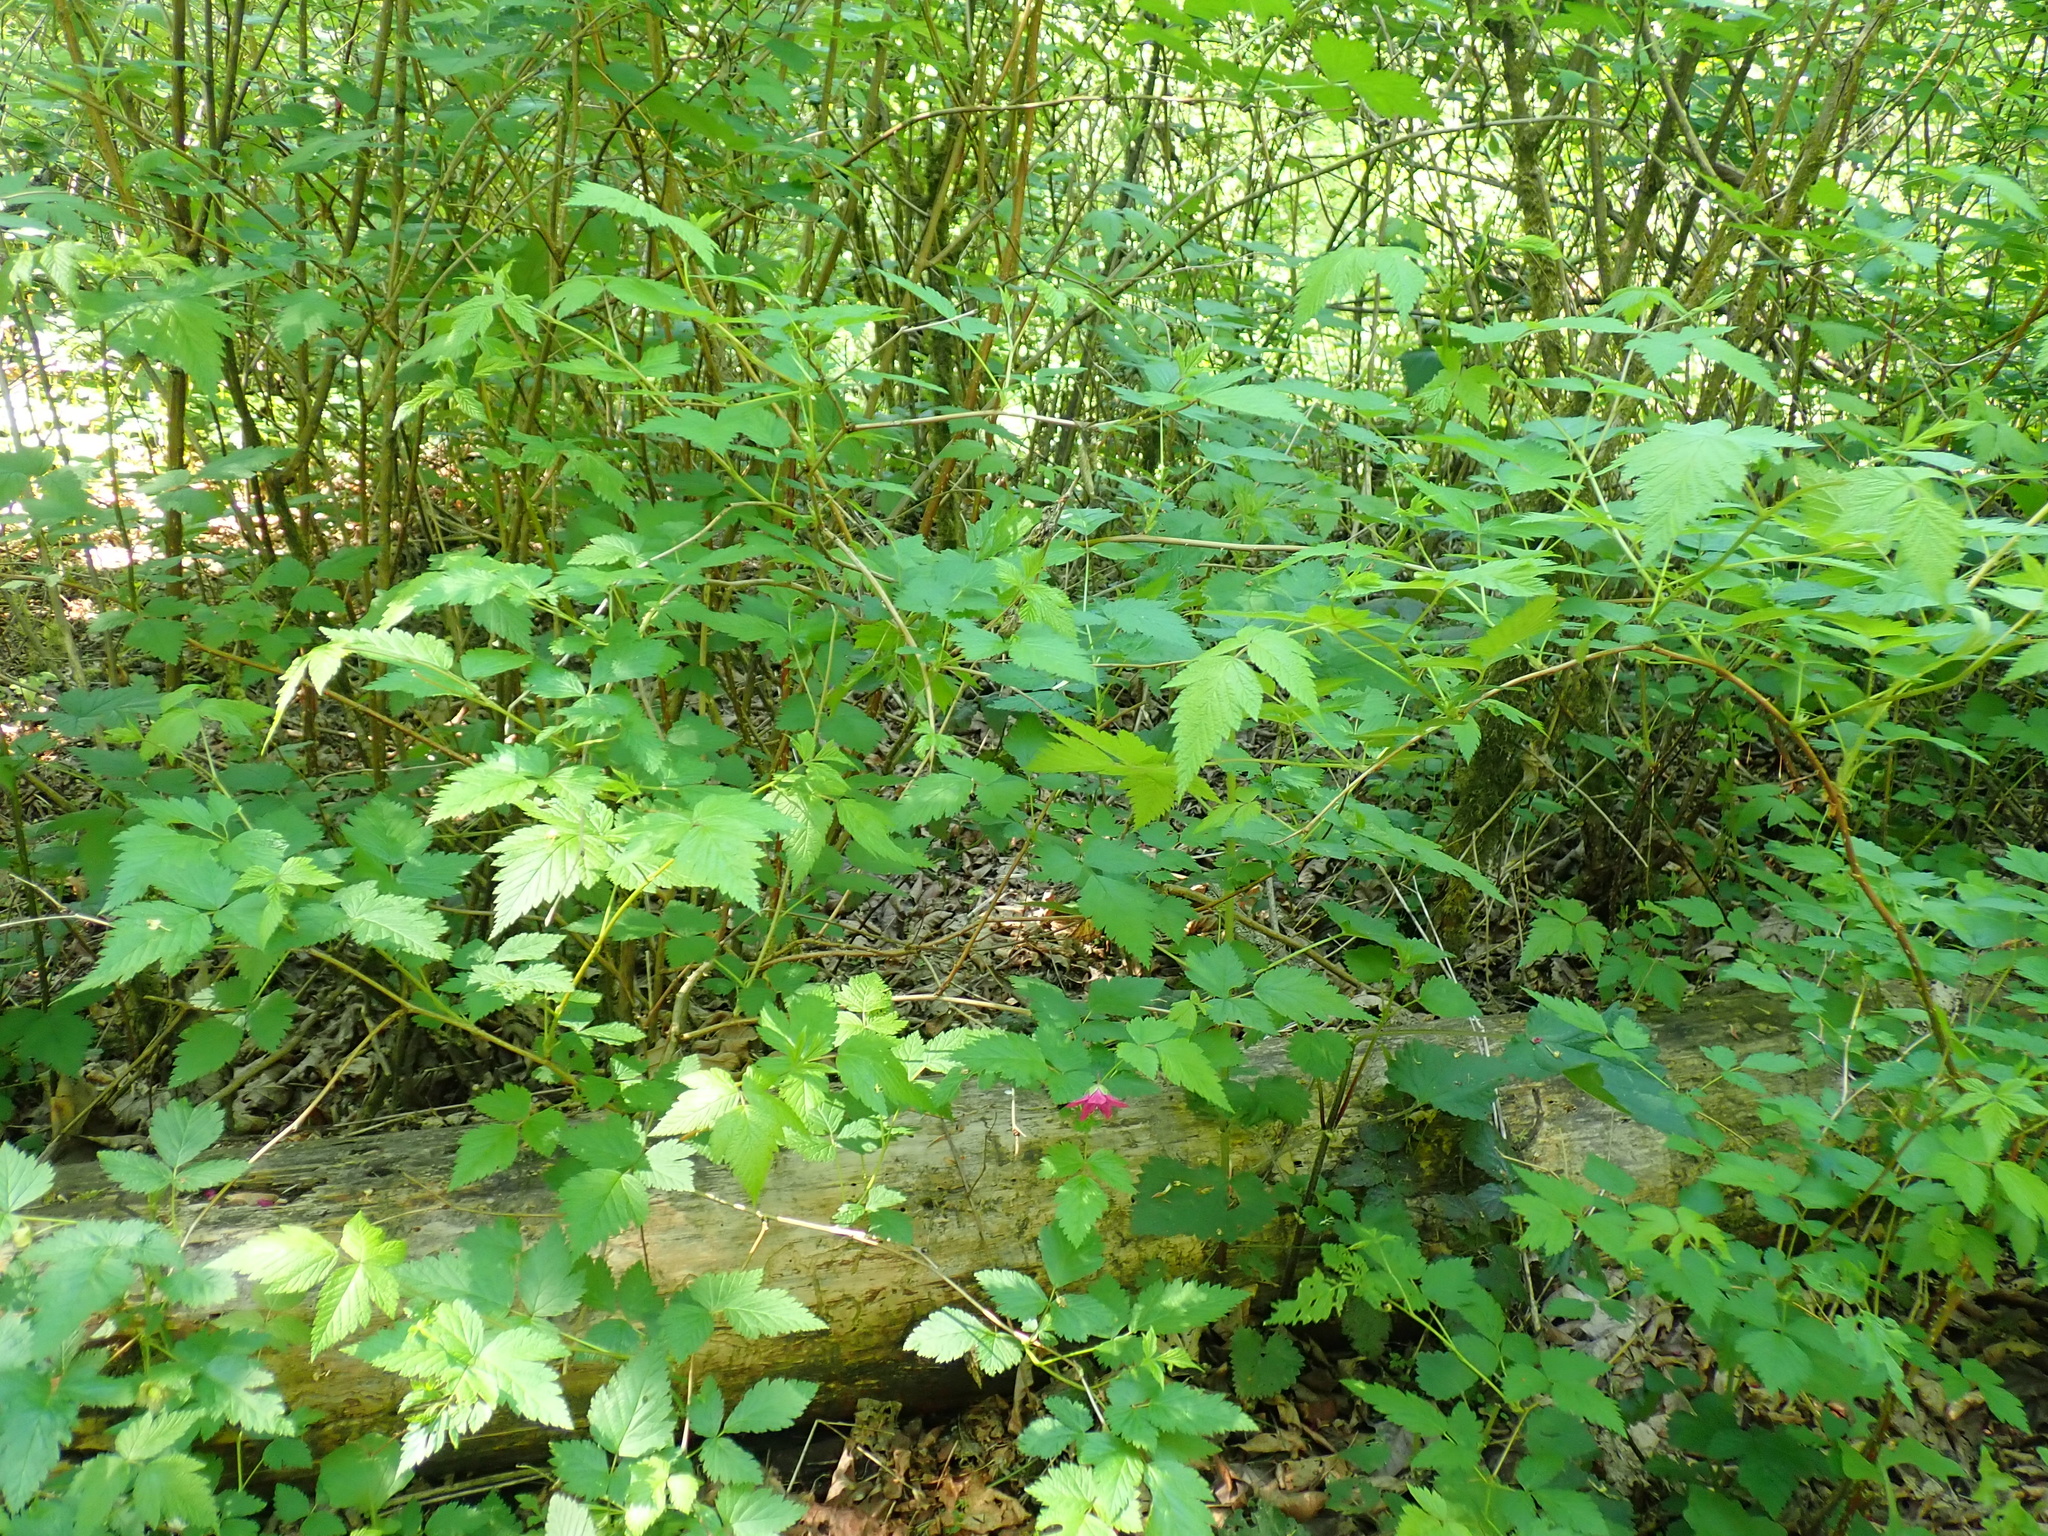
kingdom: Plantae
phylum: Tracheophyta
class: Magnoliopsida
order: Rosales
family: Rosaceae
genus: Rubus
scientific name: Rubus spectabilis
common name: Salmonberry
